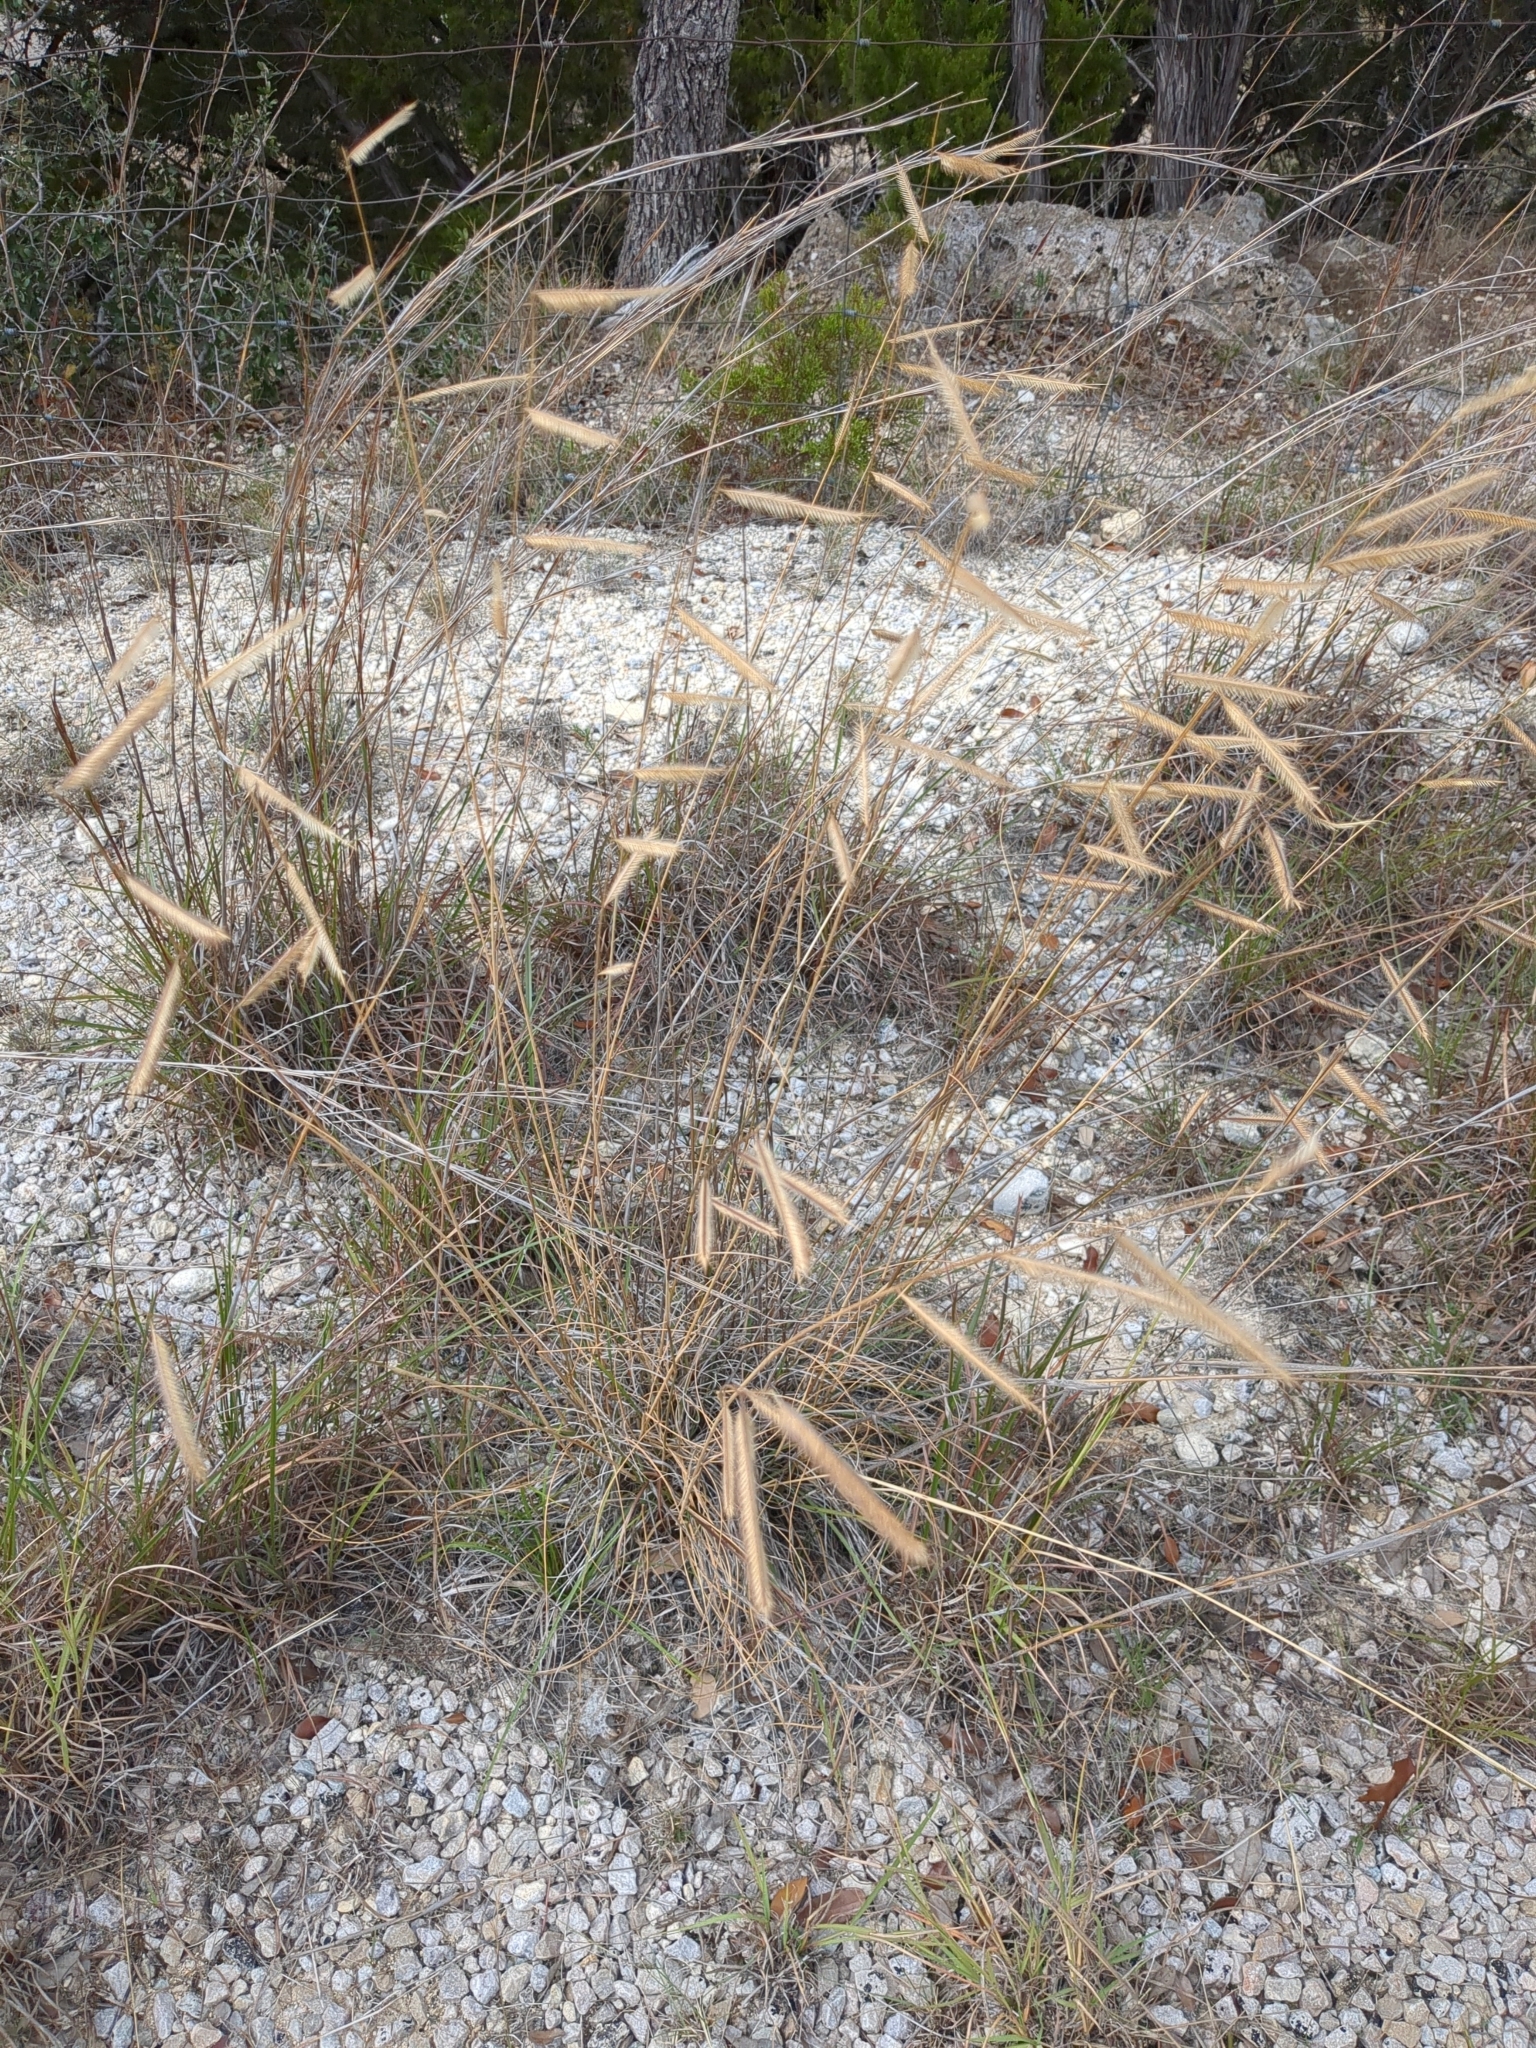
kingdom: Plantae
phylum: Tracheophyta
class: Liliopsida
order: Poales
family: Poaceae
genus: Bouteloua
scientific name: Bouteloua pectinata
